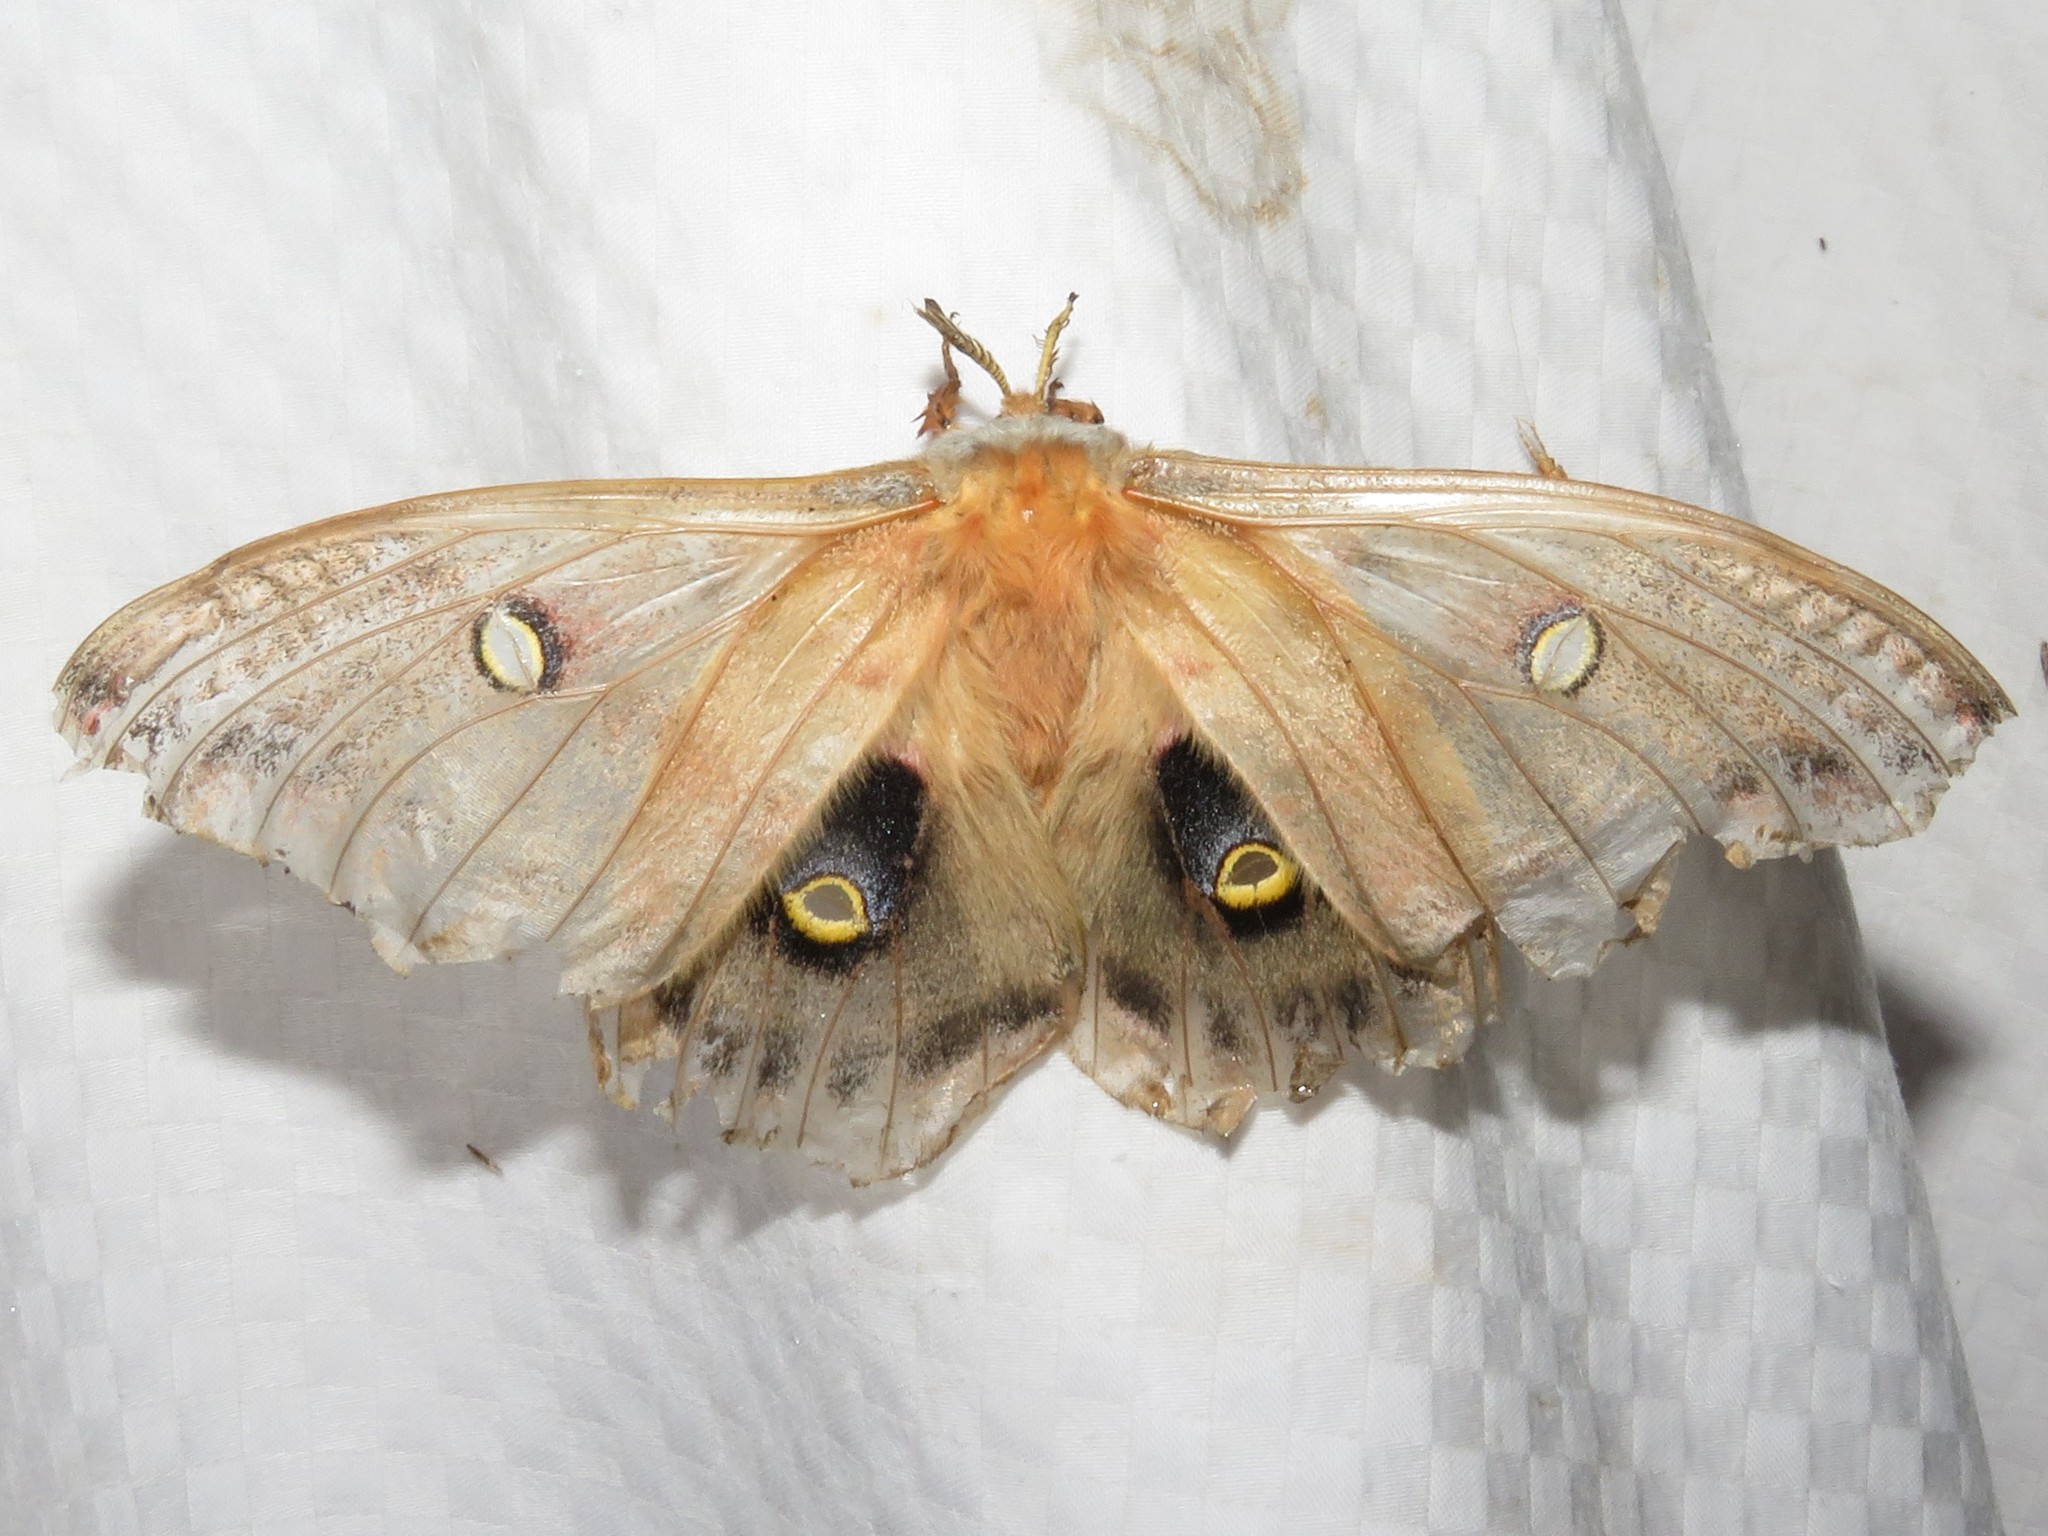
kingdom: Animalia
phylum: Arthropoda
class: Insecta
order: Lepidoptera
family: Saturniidae
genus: Antheraea
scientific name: Antheraea polyphemus
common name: Polyphemus moth
